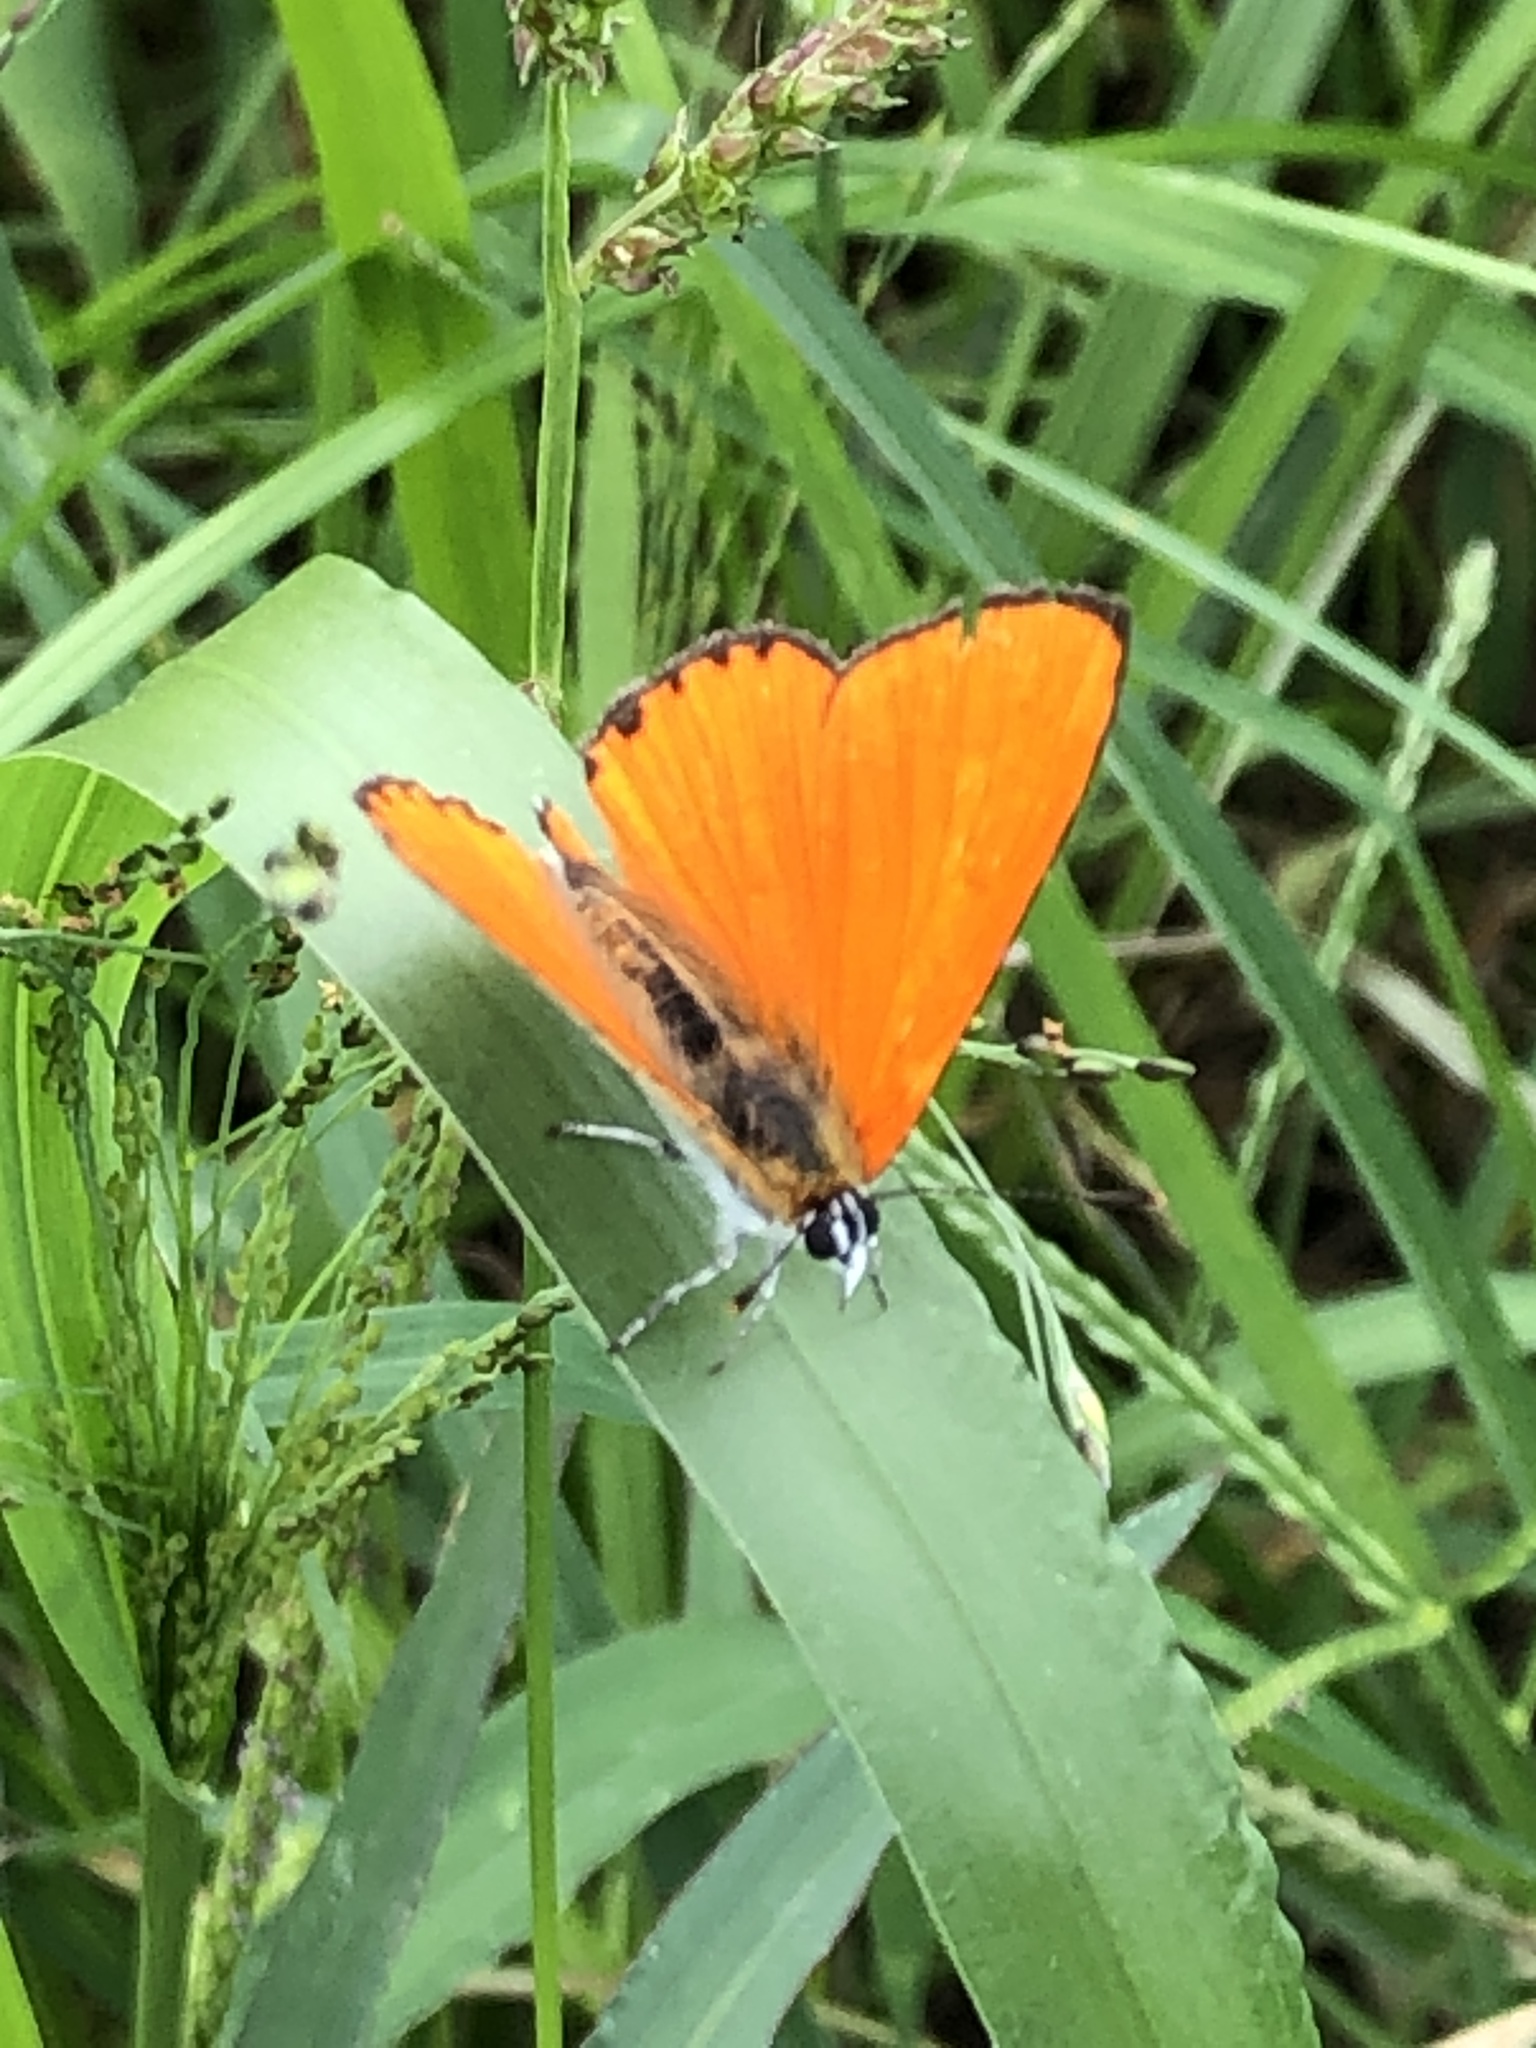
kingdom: Animalia
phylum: Arthropoda
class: Insecta
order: Lepidoptera
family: Lycaenidae
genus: Lycaena
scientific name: Lycaena dispar
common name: Large copper
